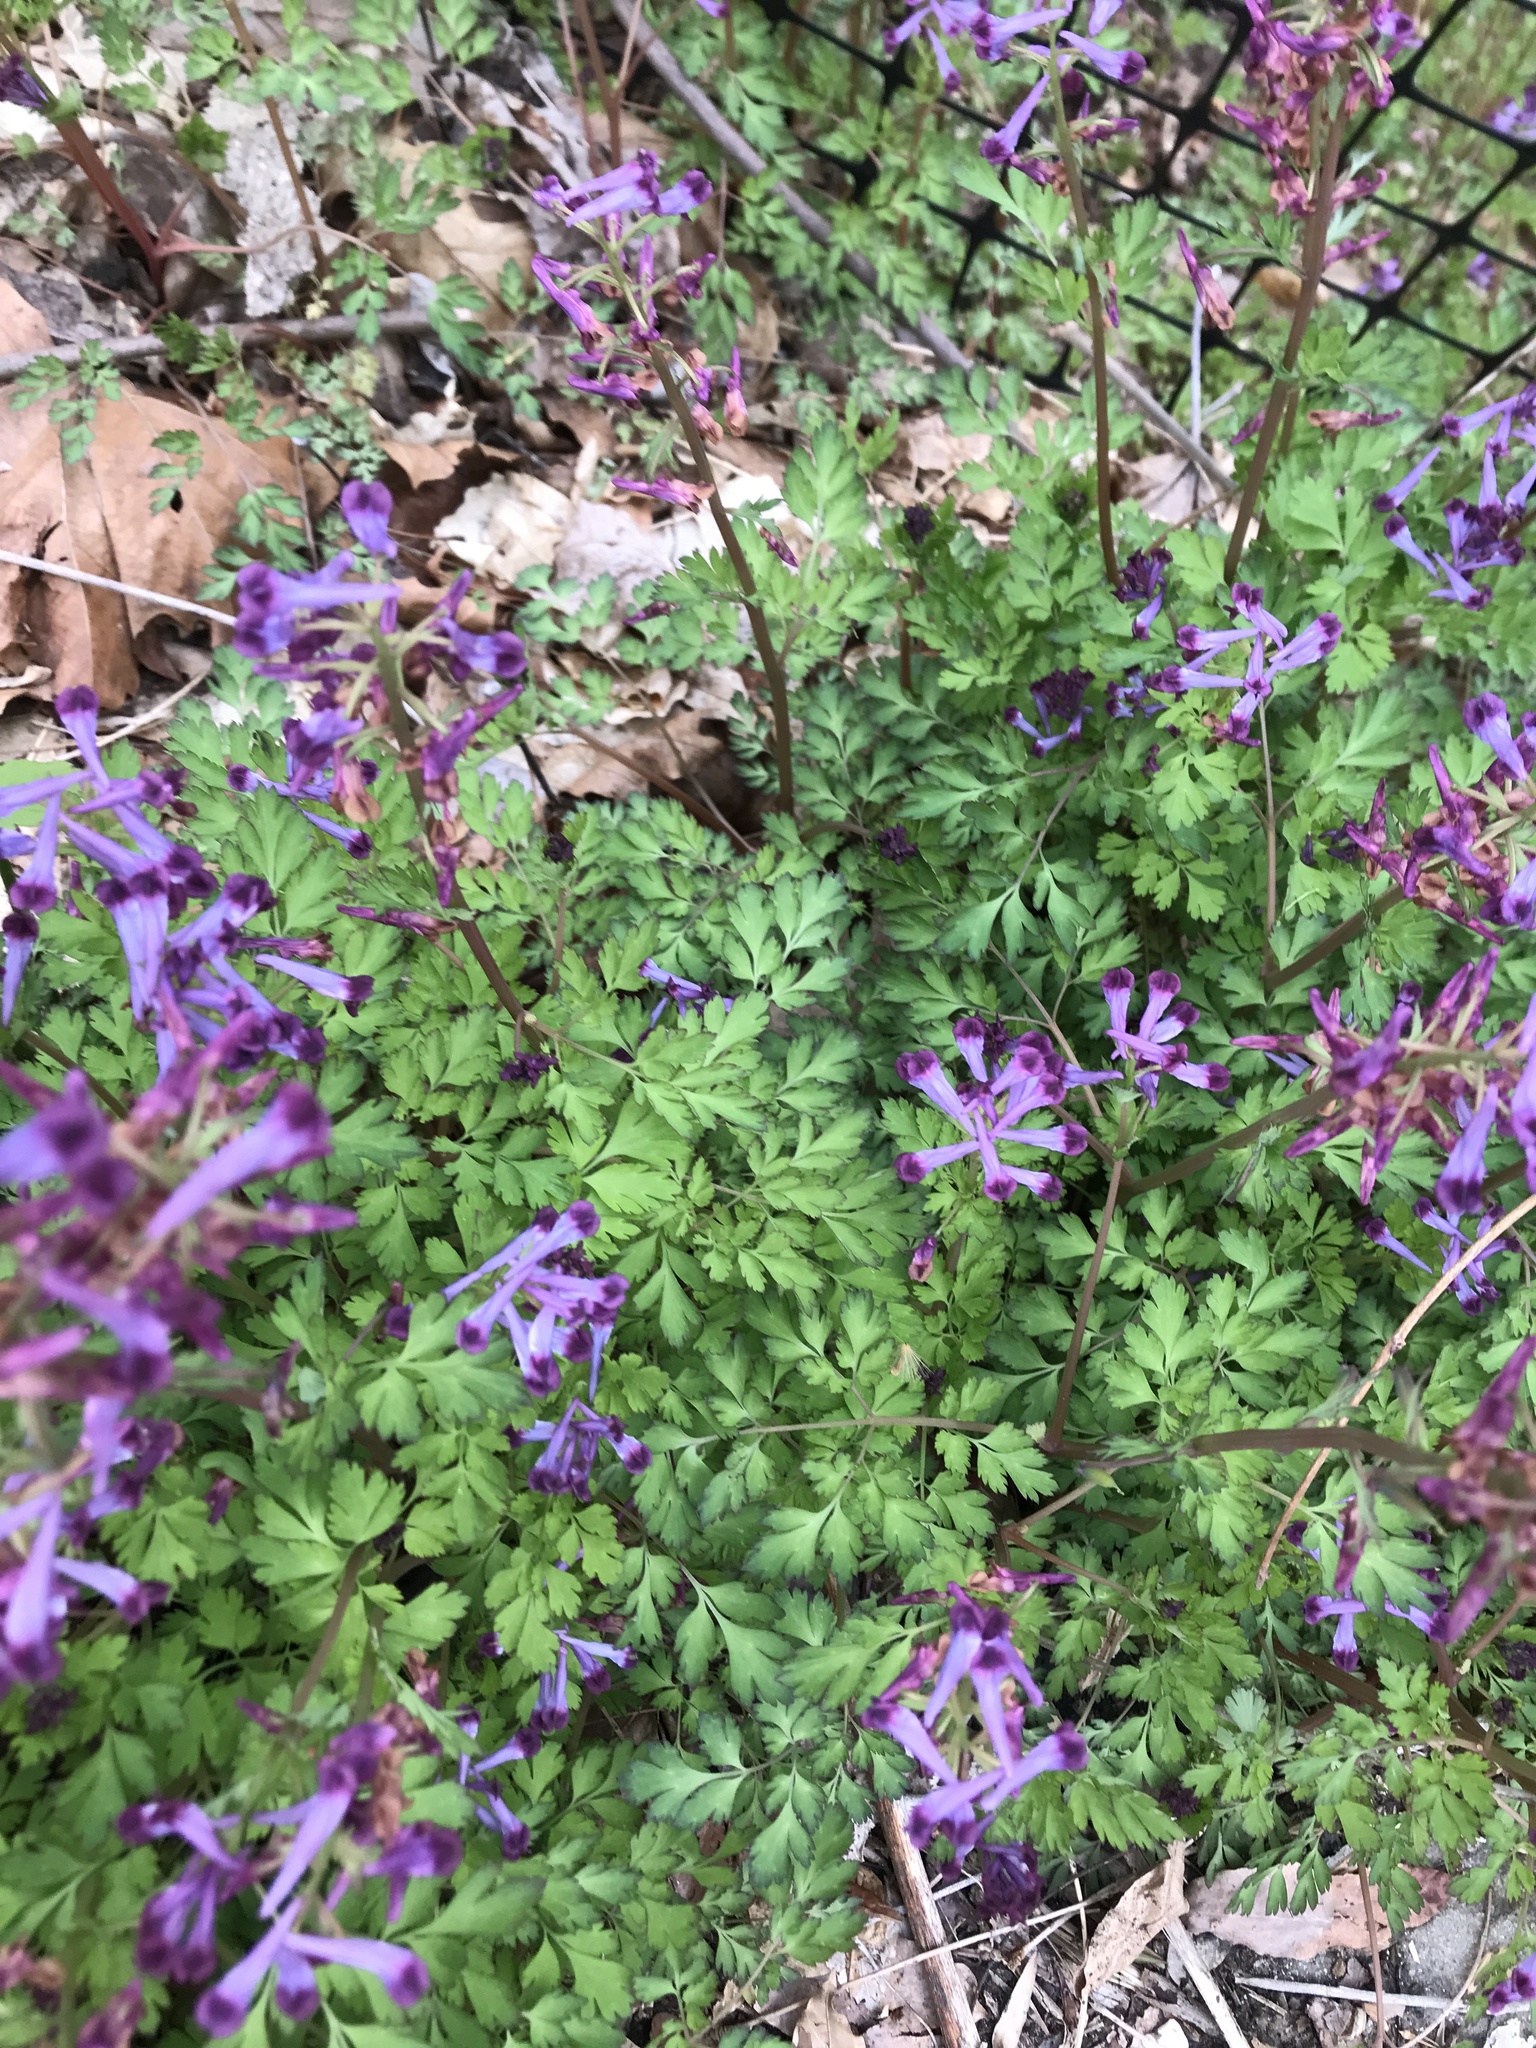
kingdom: Plantae
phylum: Tracheophyta
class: Magnoliopsida
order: Ranunculales
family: Papaveraceae
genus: Corydalis
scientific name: Corydalis incisa
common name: Incised fumewort
